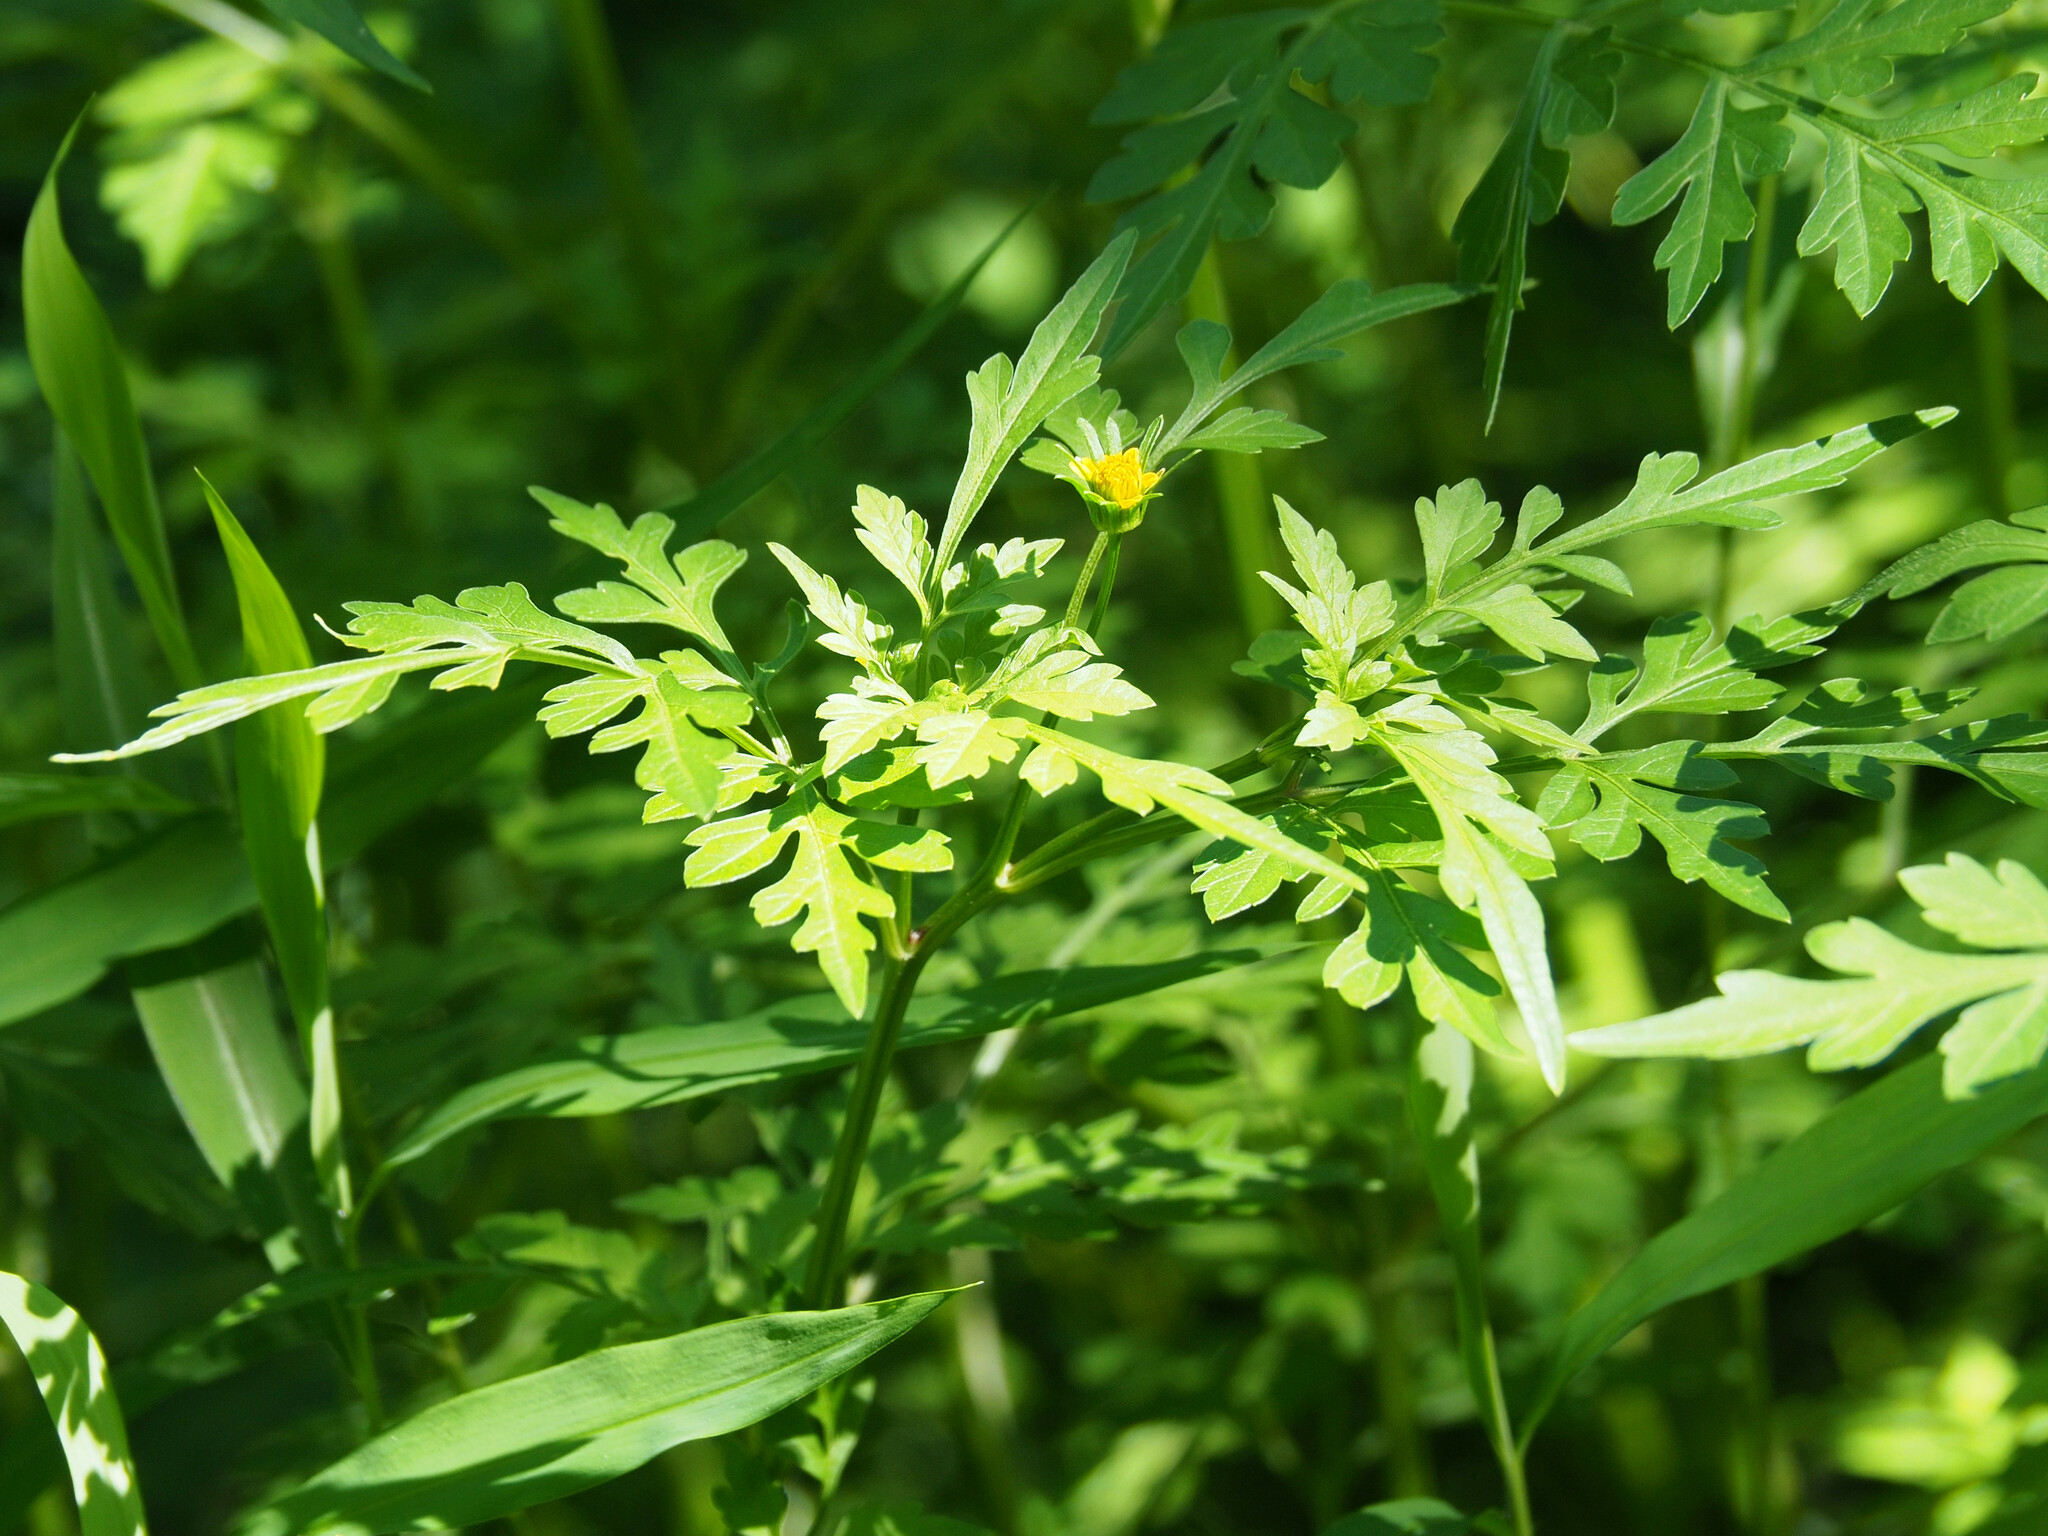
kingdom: Plantae
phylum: Tracheophyta
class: Magnoliopsida
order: Asterales
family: Asteraceae
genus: Bidens
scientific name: Bidens bipinnata
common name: Spanish-needles
